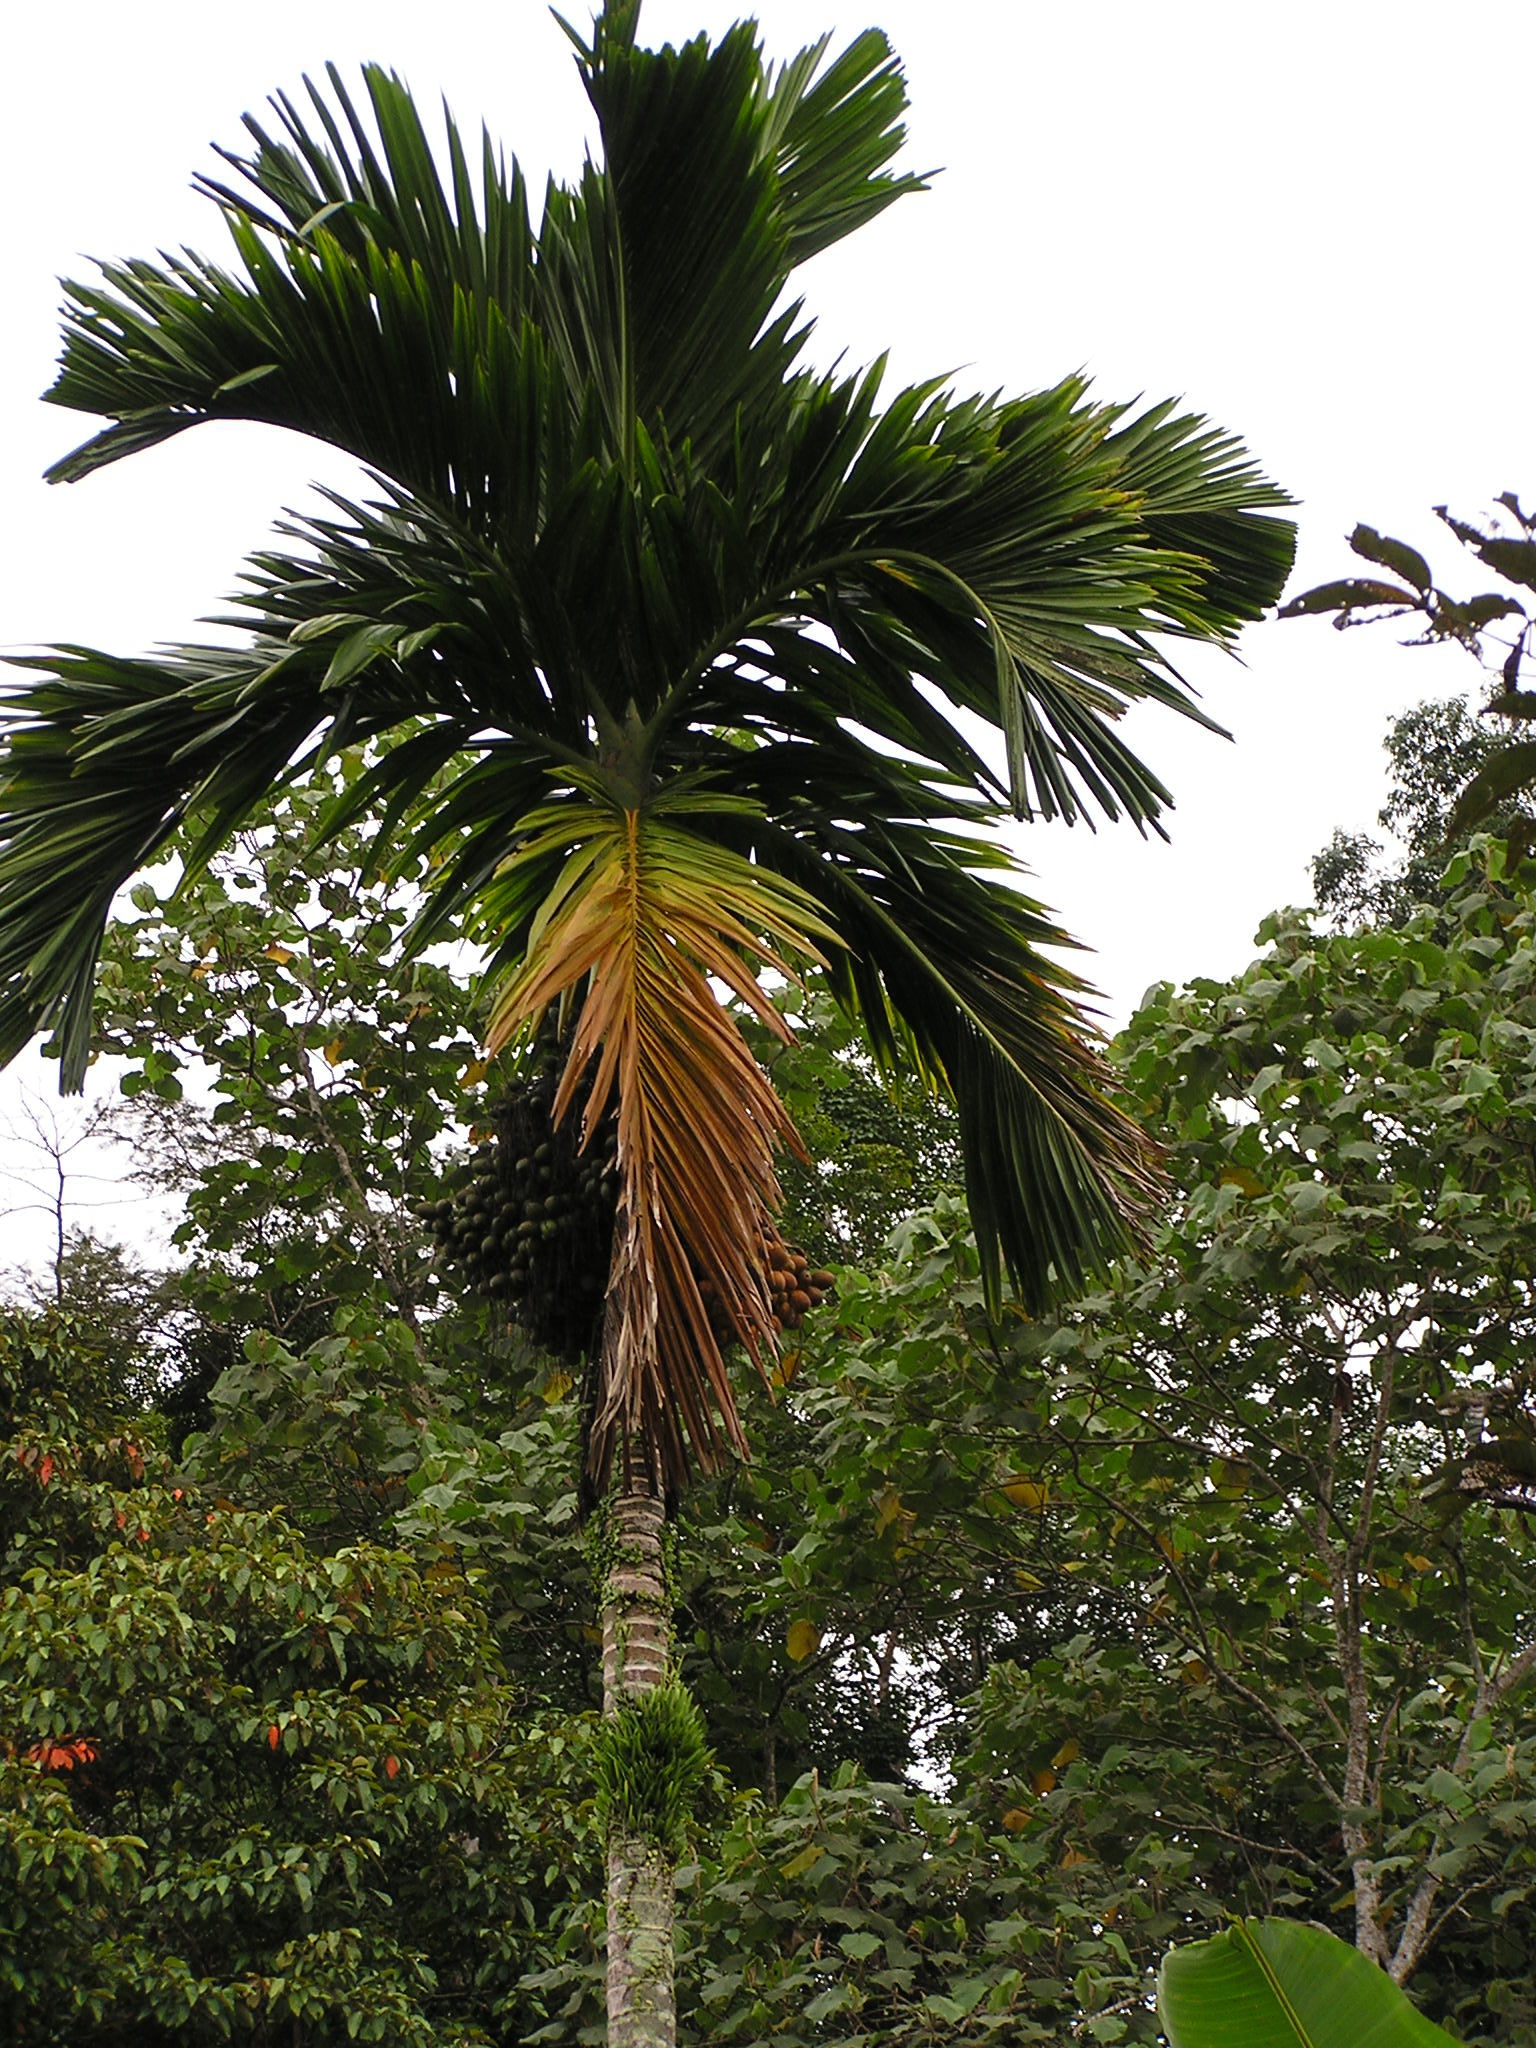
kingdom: Plantae
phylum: Tracheophyta
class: Liliopsida
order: Arecales
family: Arecaceae
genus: Areca
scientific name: Areca catechu
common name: Indian-nut
